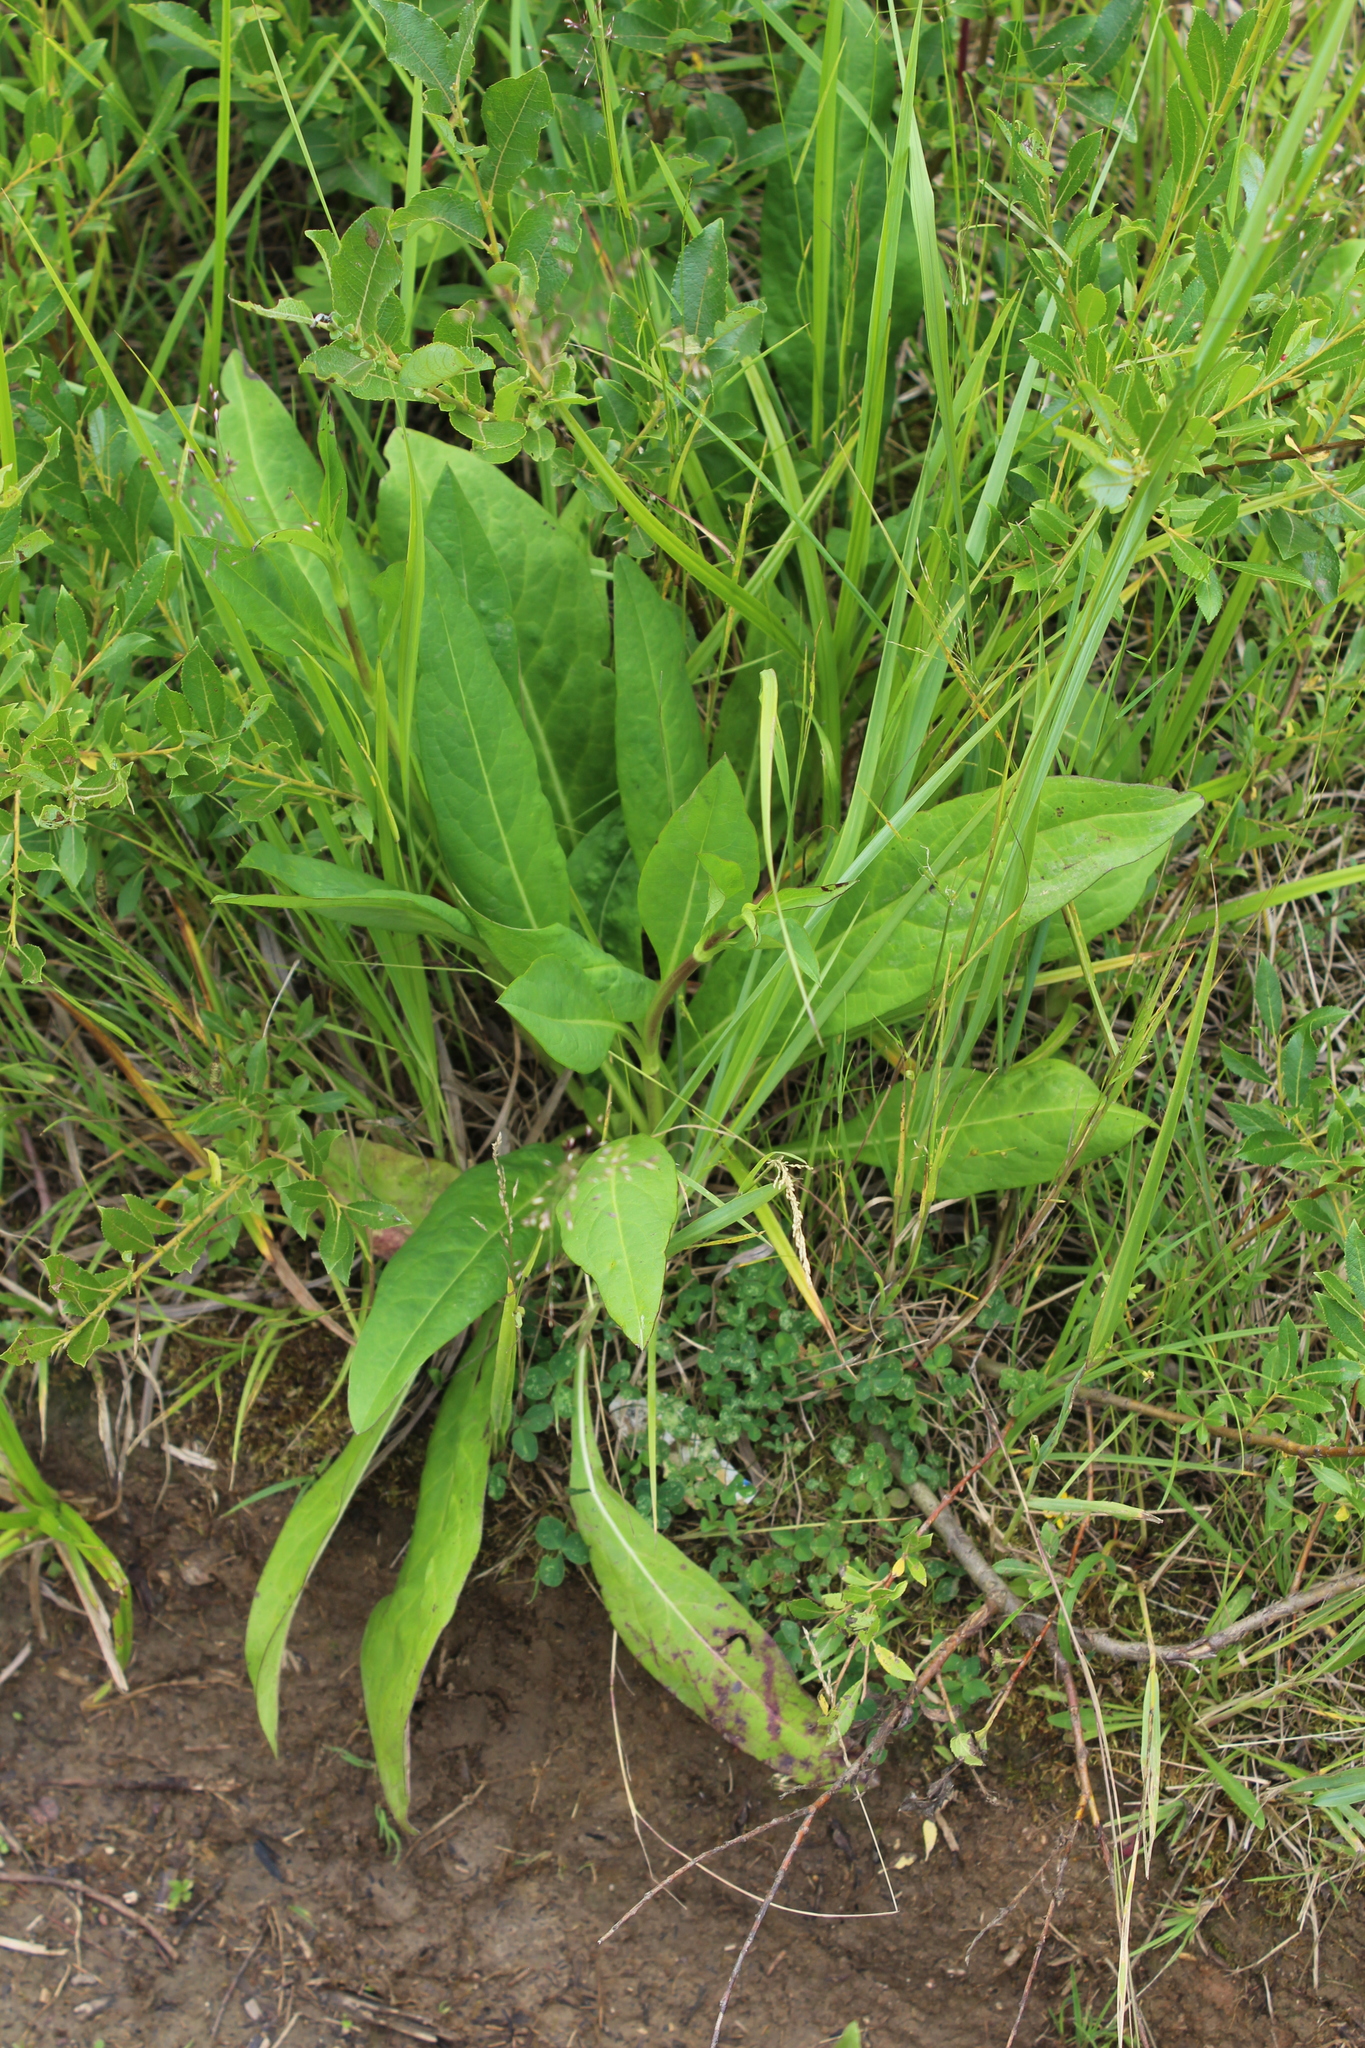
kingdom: Plantae
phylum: Tracheophyta
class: Magnoliopsida
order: Dipsacales
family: Caprifoliaceae
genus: Succisa
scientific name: Succisa pratensis
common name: Devil's-bit
